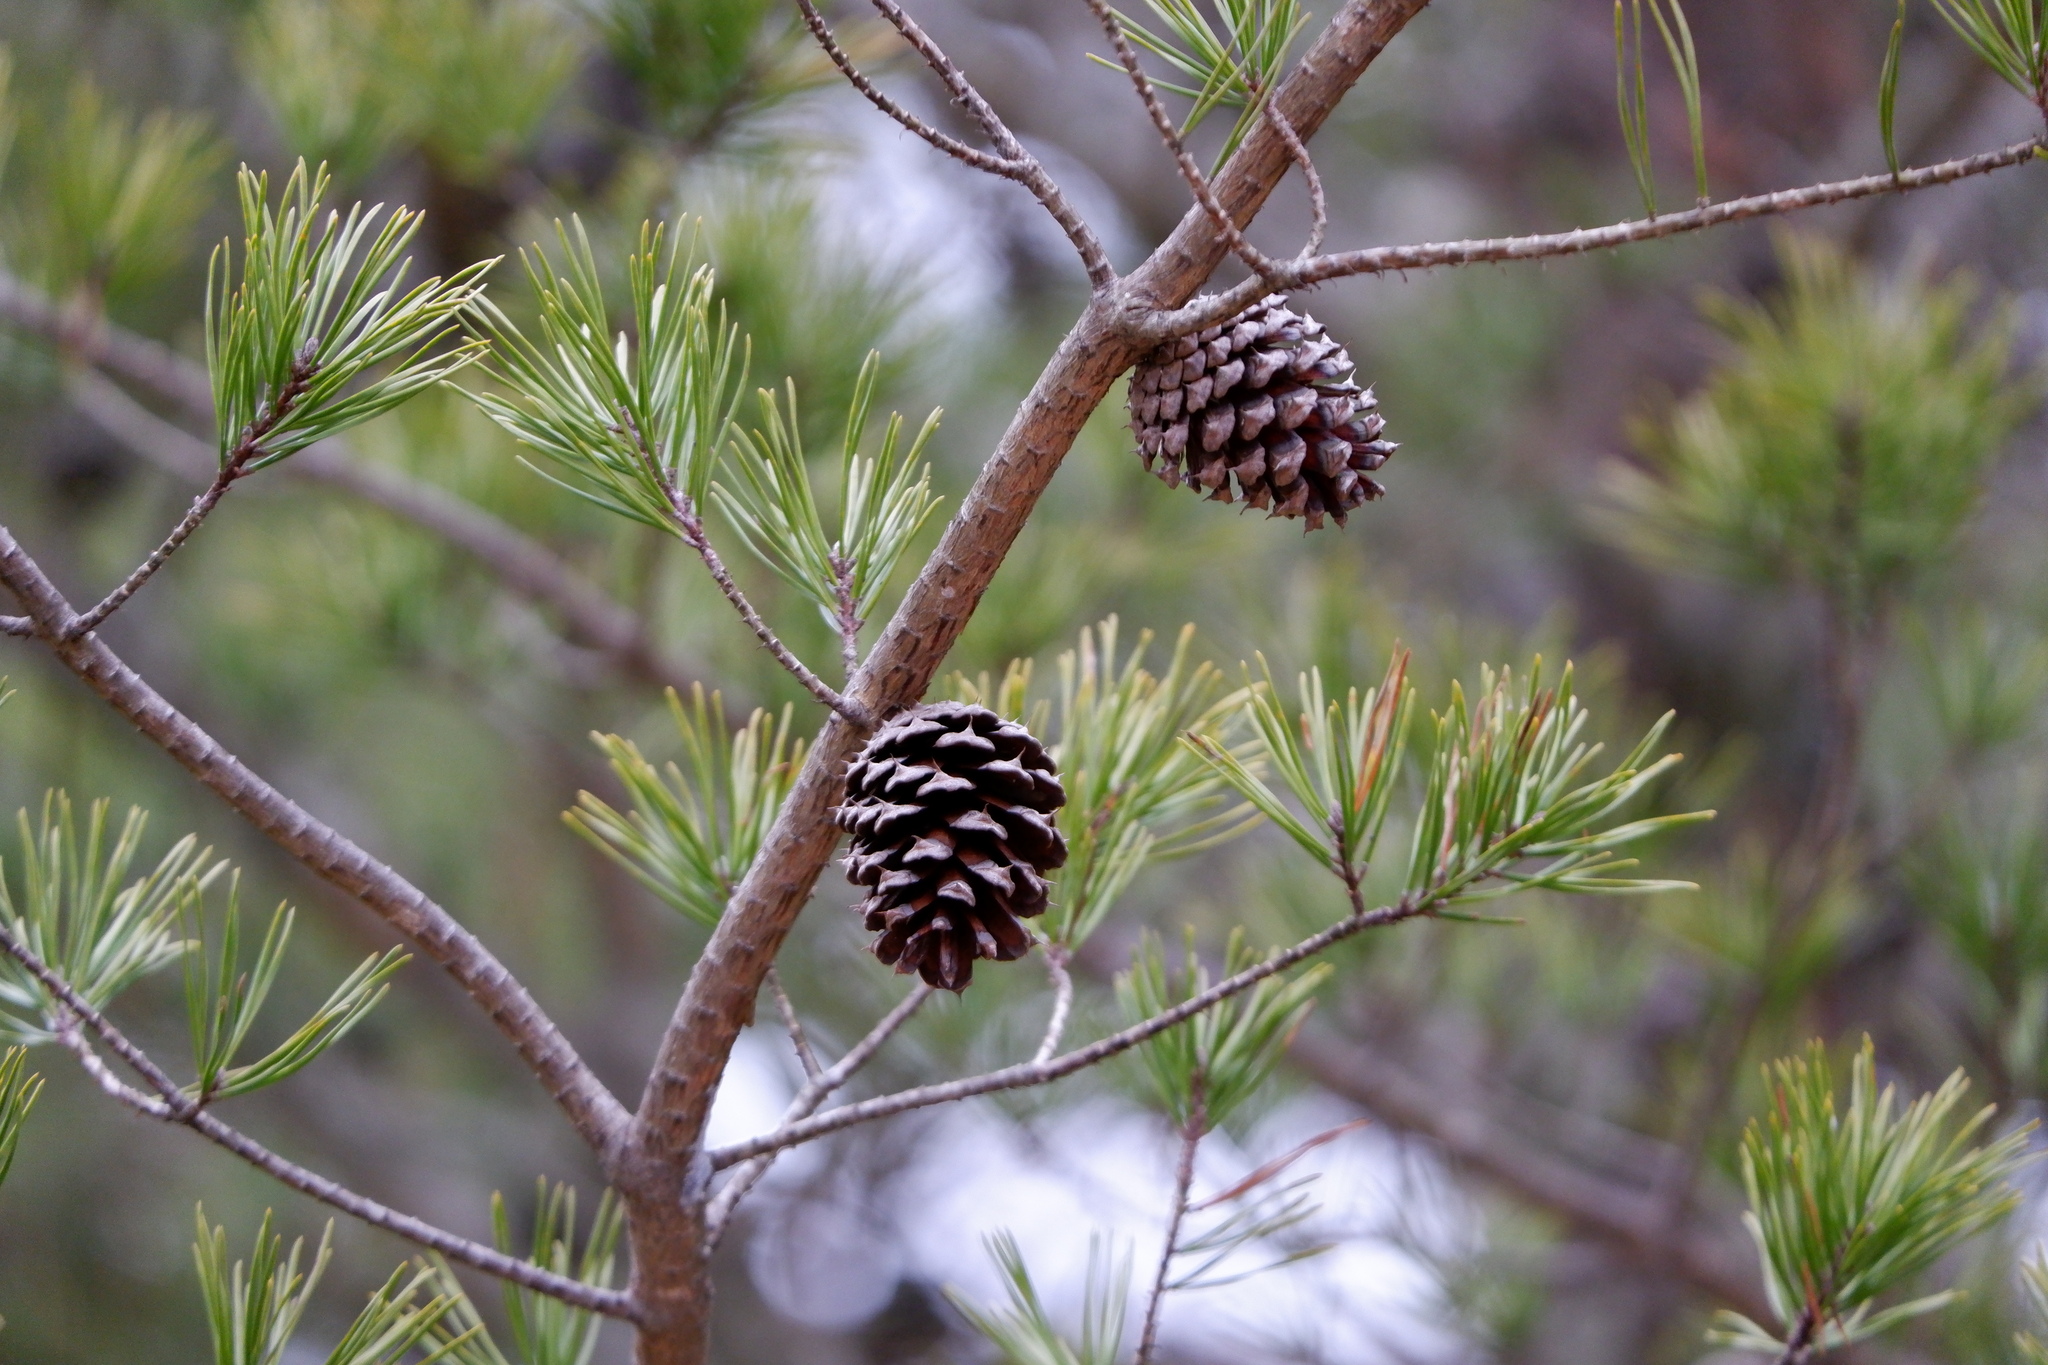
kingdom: Plantae
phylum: Tracheophyta
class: Pinopsida
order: Pinales
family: Pinaceae
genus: Pinus
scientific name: Pinus virginiana
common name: Scrub pine
